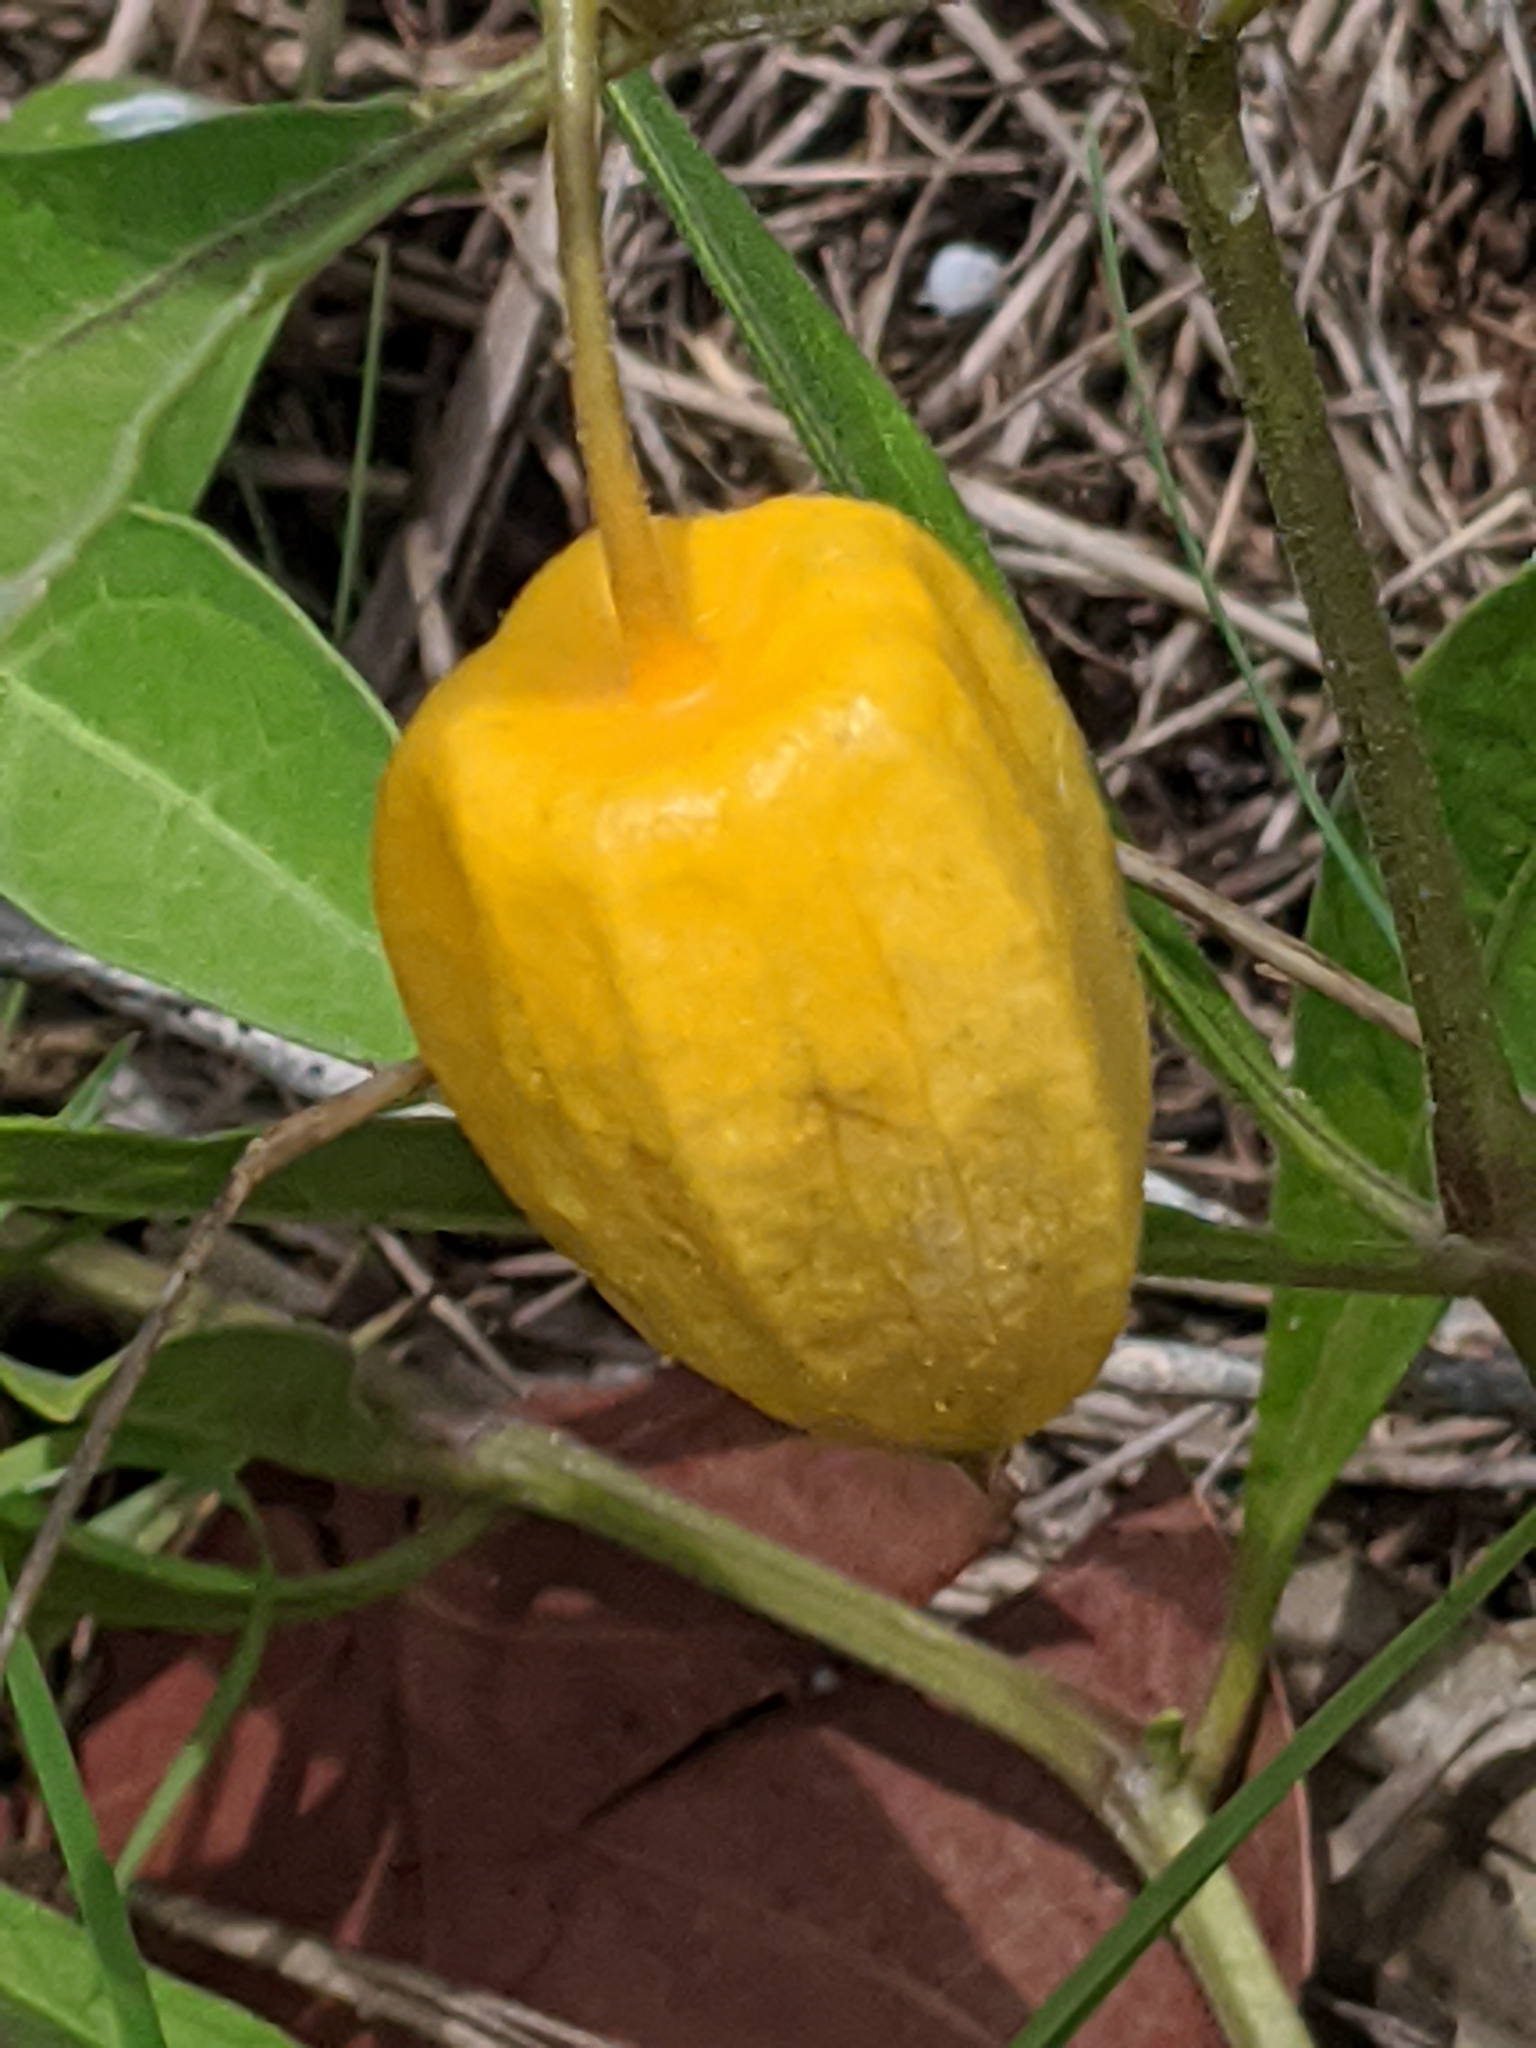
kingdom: Plantae
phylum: Tracheophyta
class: Magnoliopsida
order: Solanales
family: Solanaceae
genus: Physalis
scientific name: Physalis walteri
